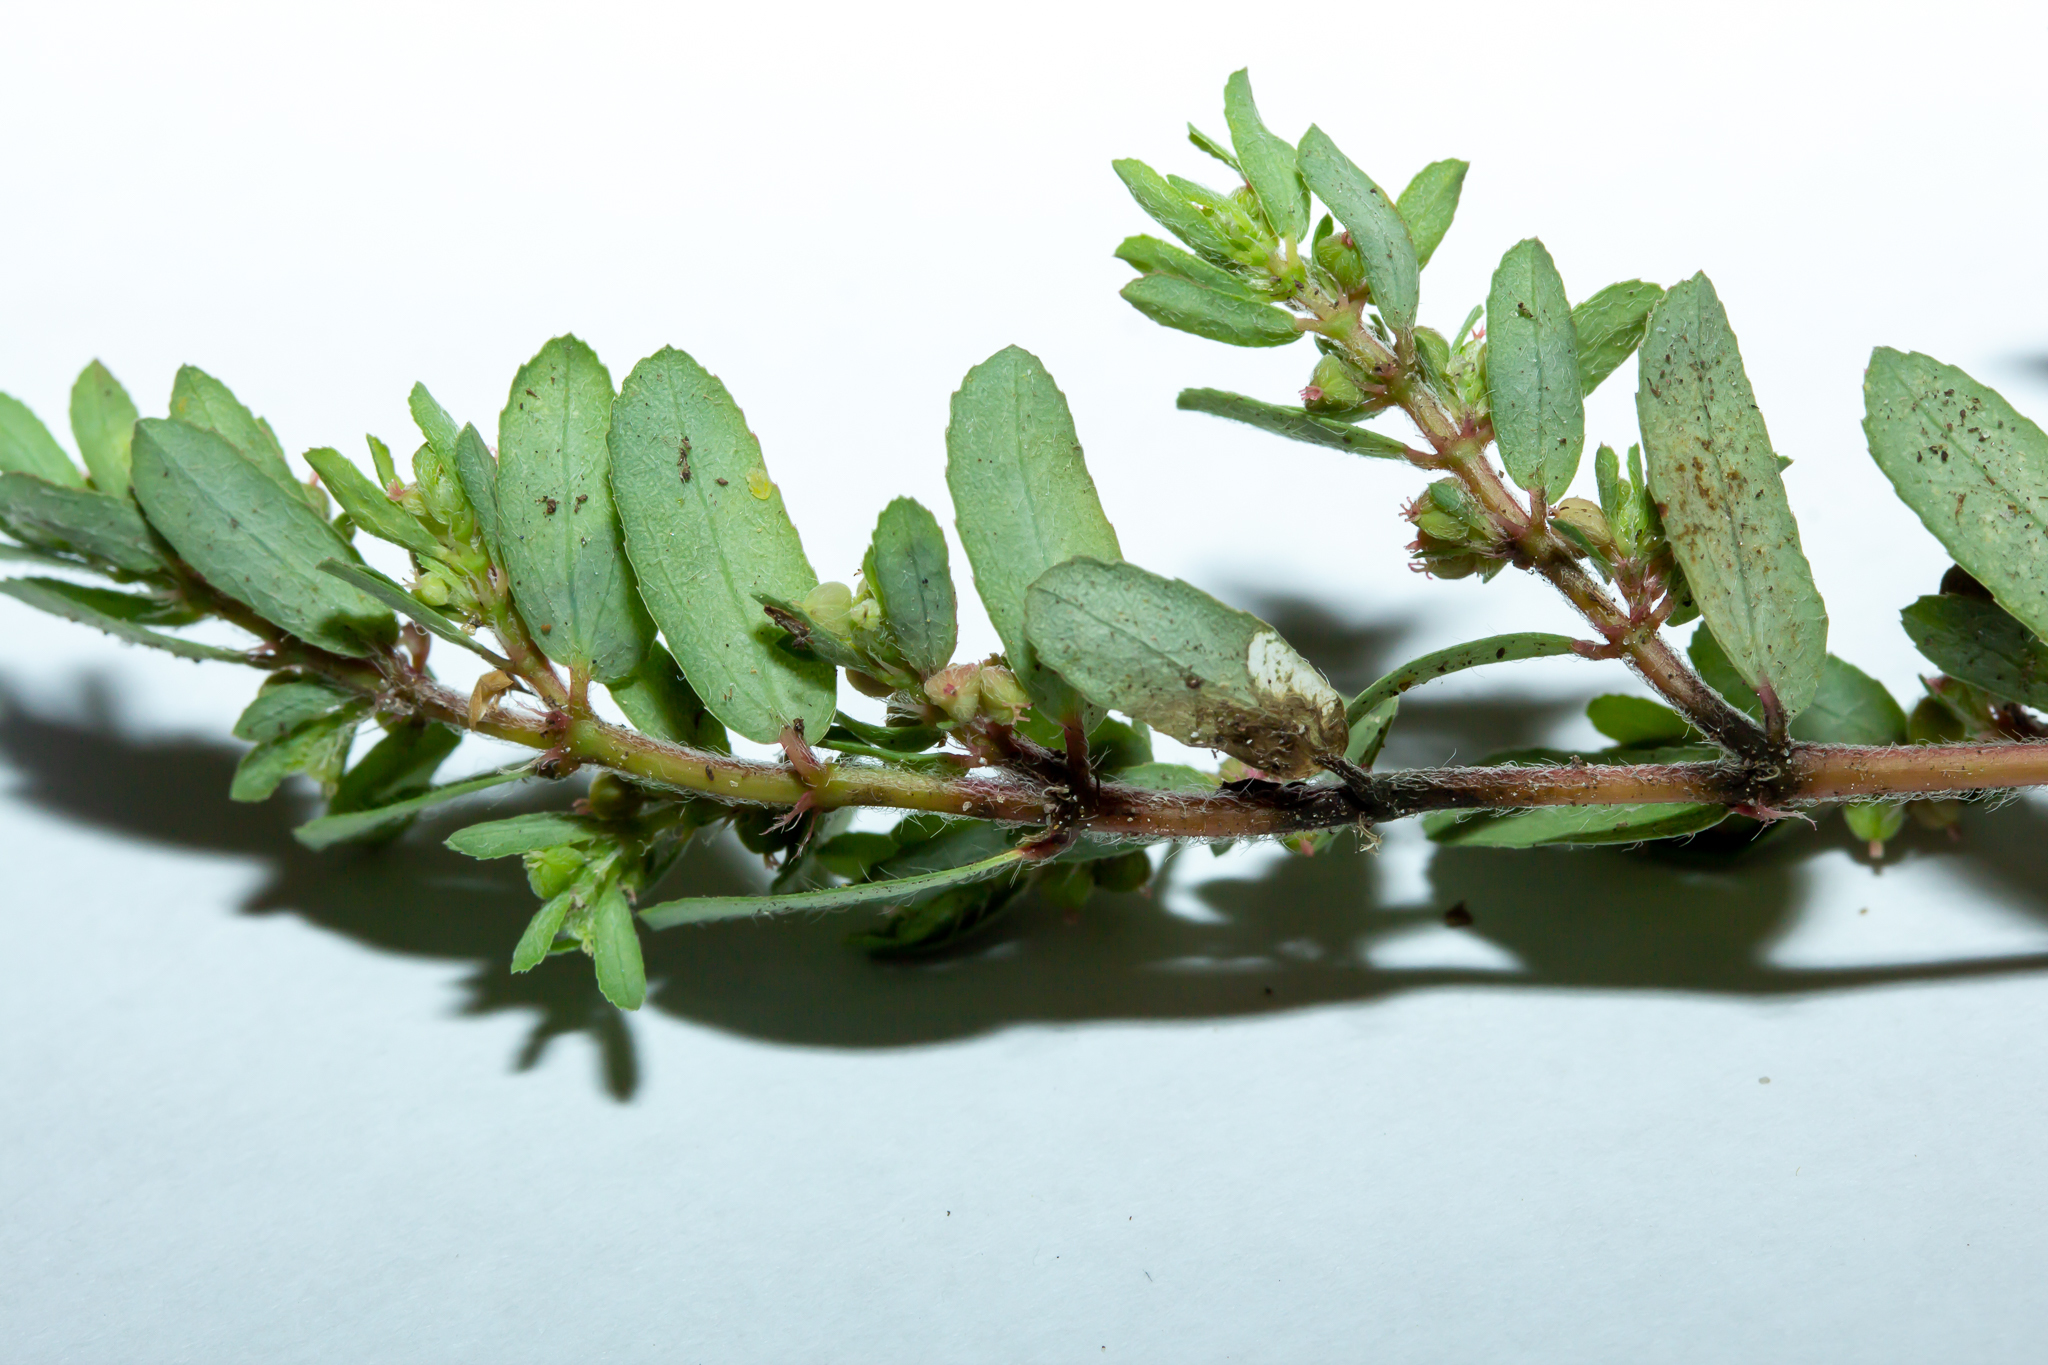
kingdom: Plantae
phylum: Tracheophyta
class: Magnoliopsida
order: Malpighiales
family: Euphorbiaceae
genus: Euphorbia
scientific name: Euphorbia maculata
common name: Spotted spurge
